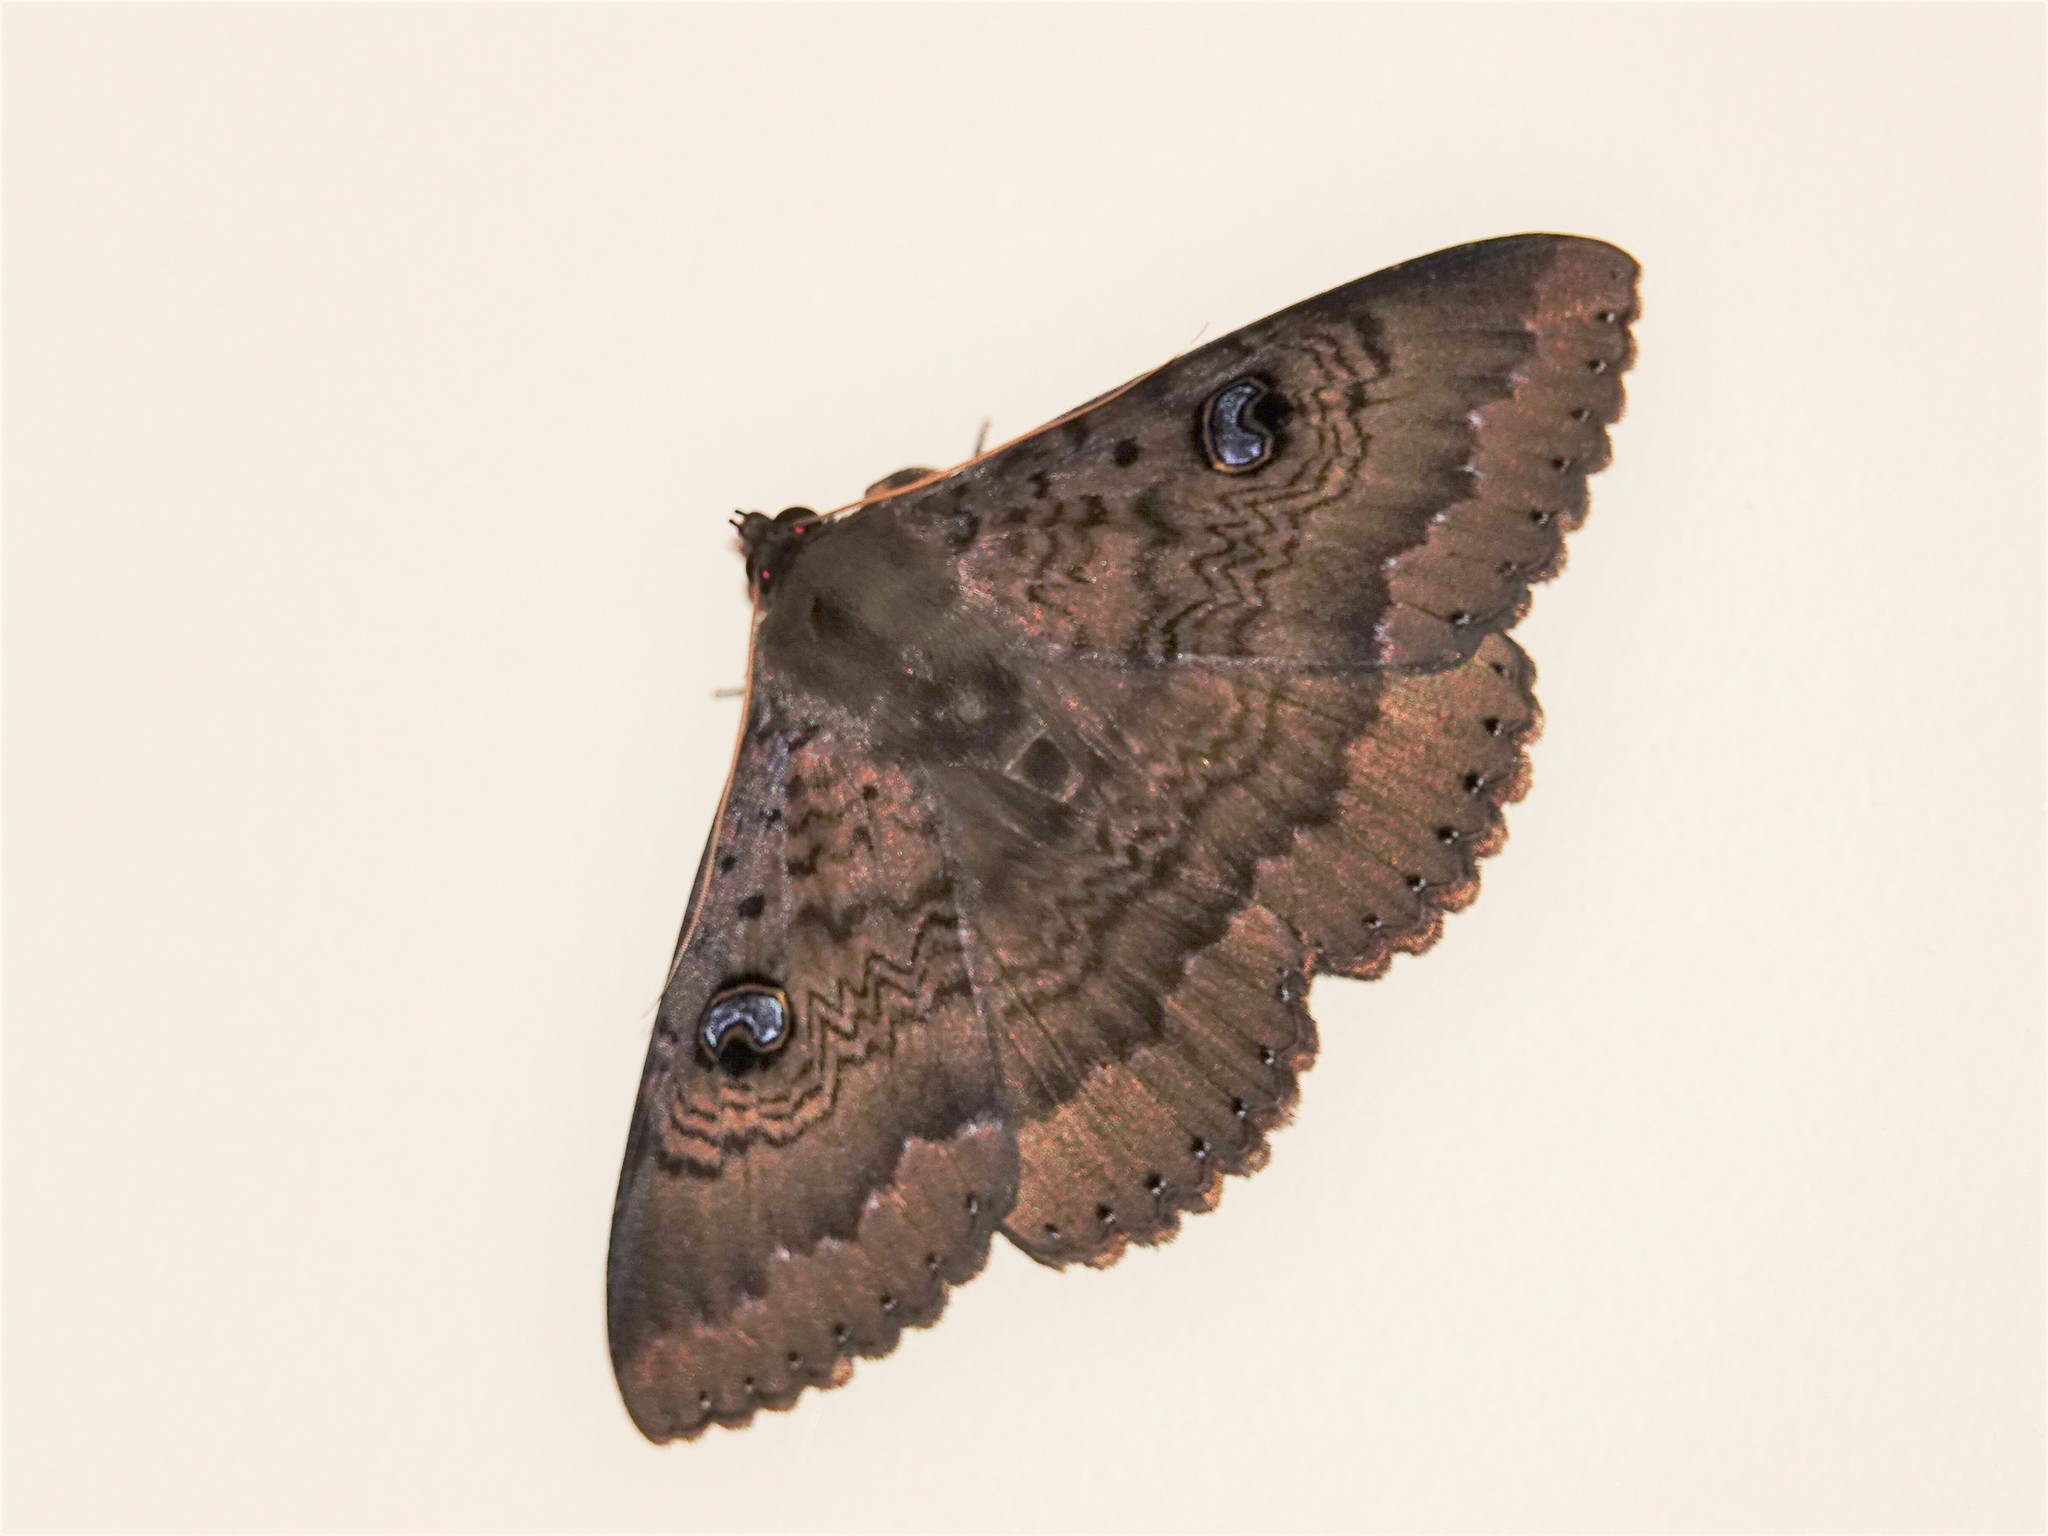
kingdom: Animalia
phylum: Arthropoda
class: Insecta
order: Lepidoptera
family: Erebidae
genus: Dasypodia
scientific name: Dasypodia cymatodes
